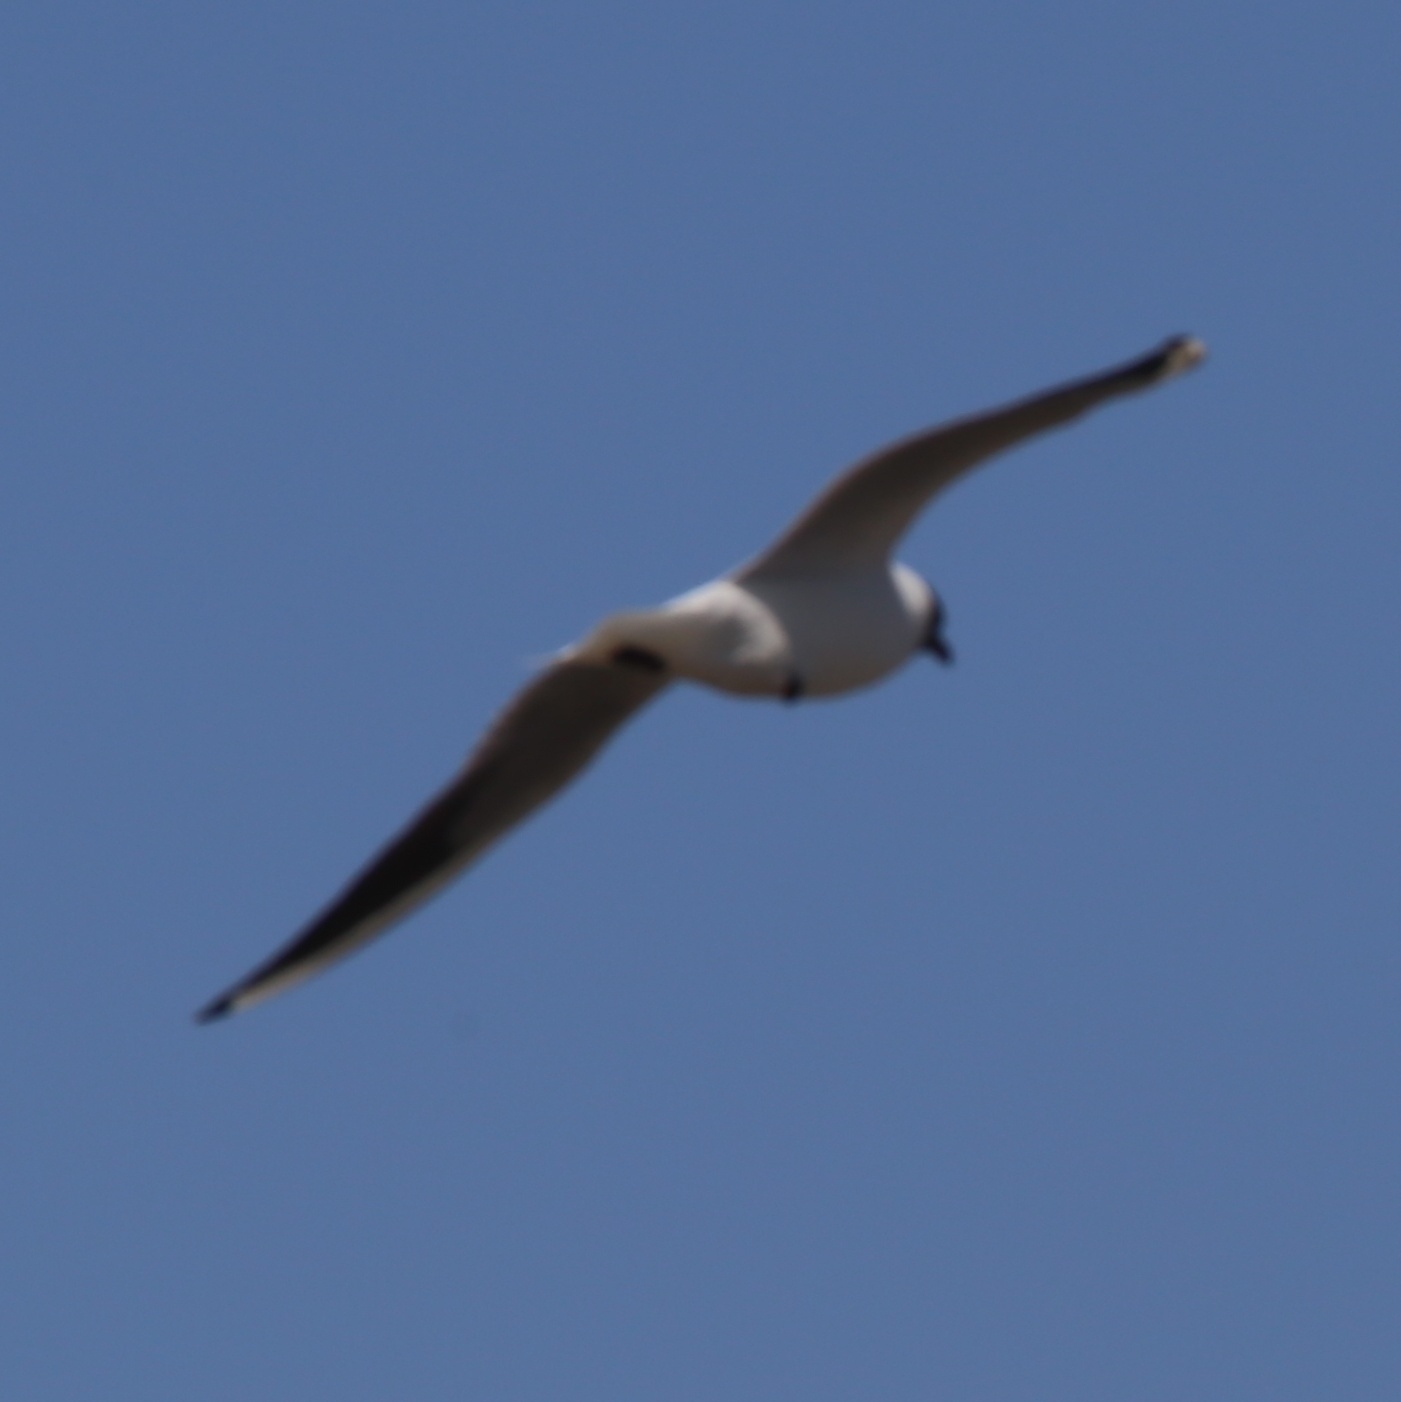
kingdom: Animalia
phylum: Chordata
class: Aves
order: Charadriiformes
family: Laridae
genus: Chroicocephalus
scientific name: Chroicocephalus ridibundus
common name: Black-headed gull
